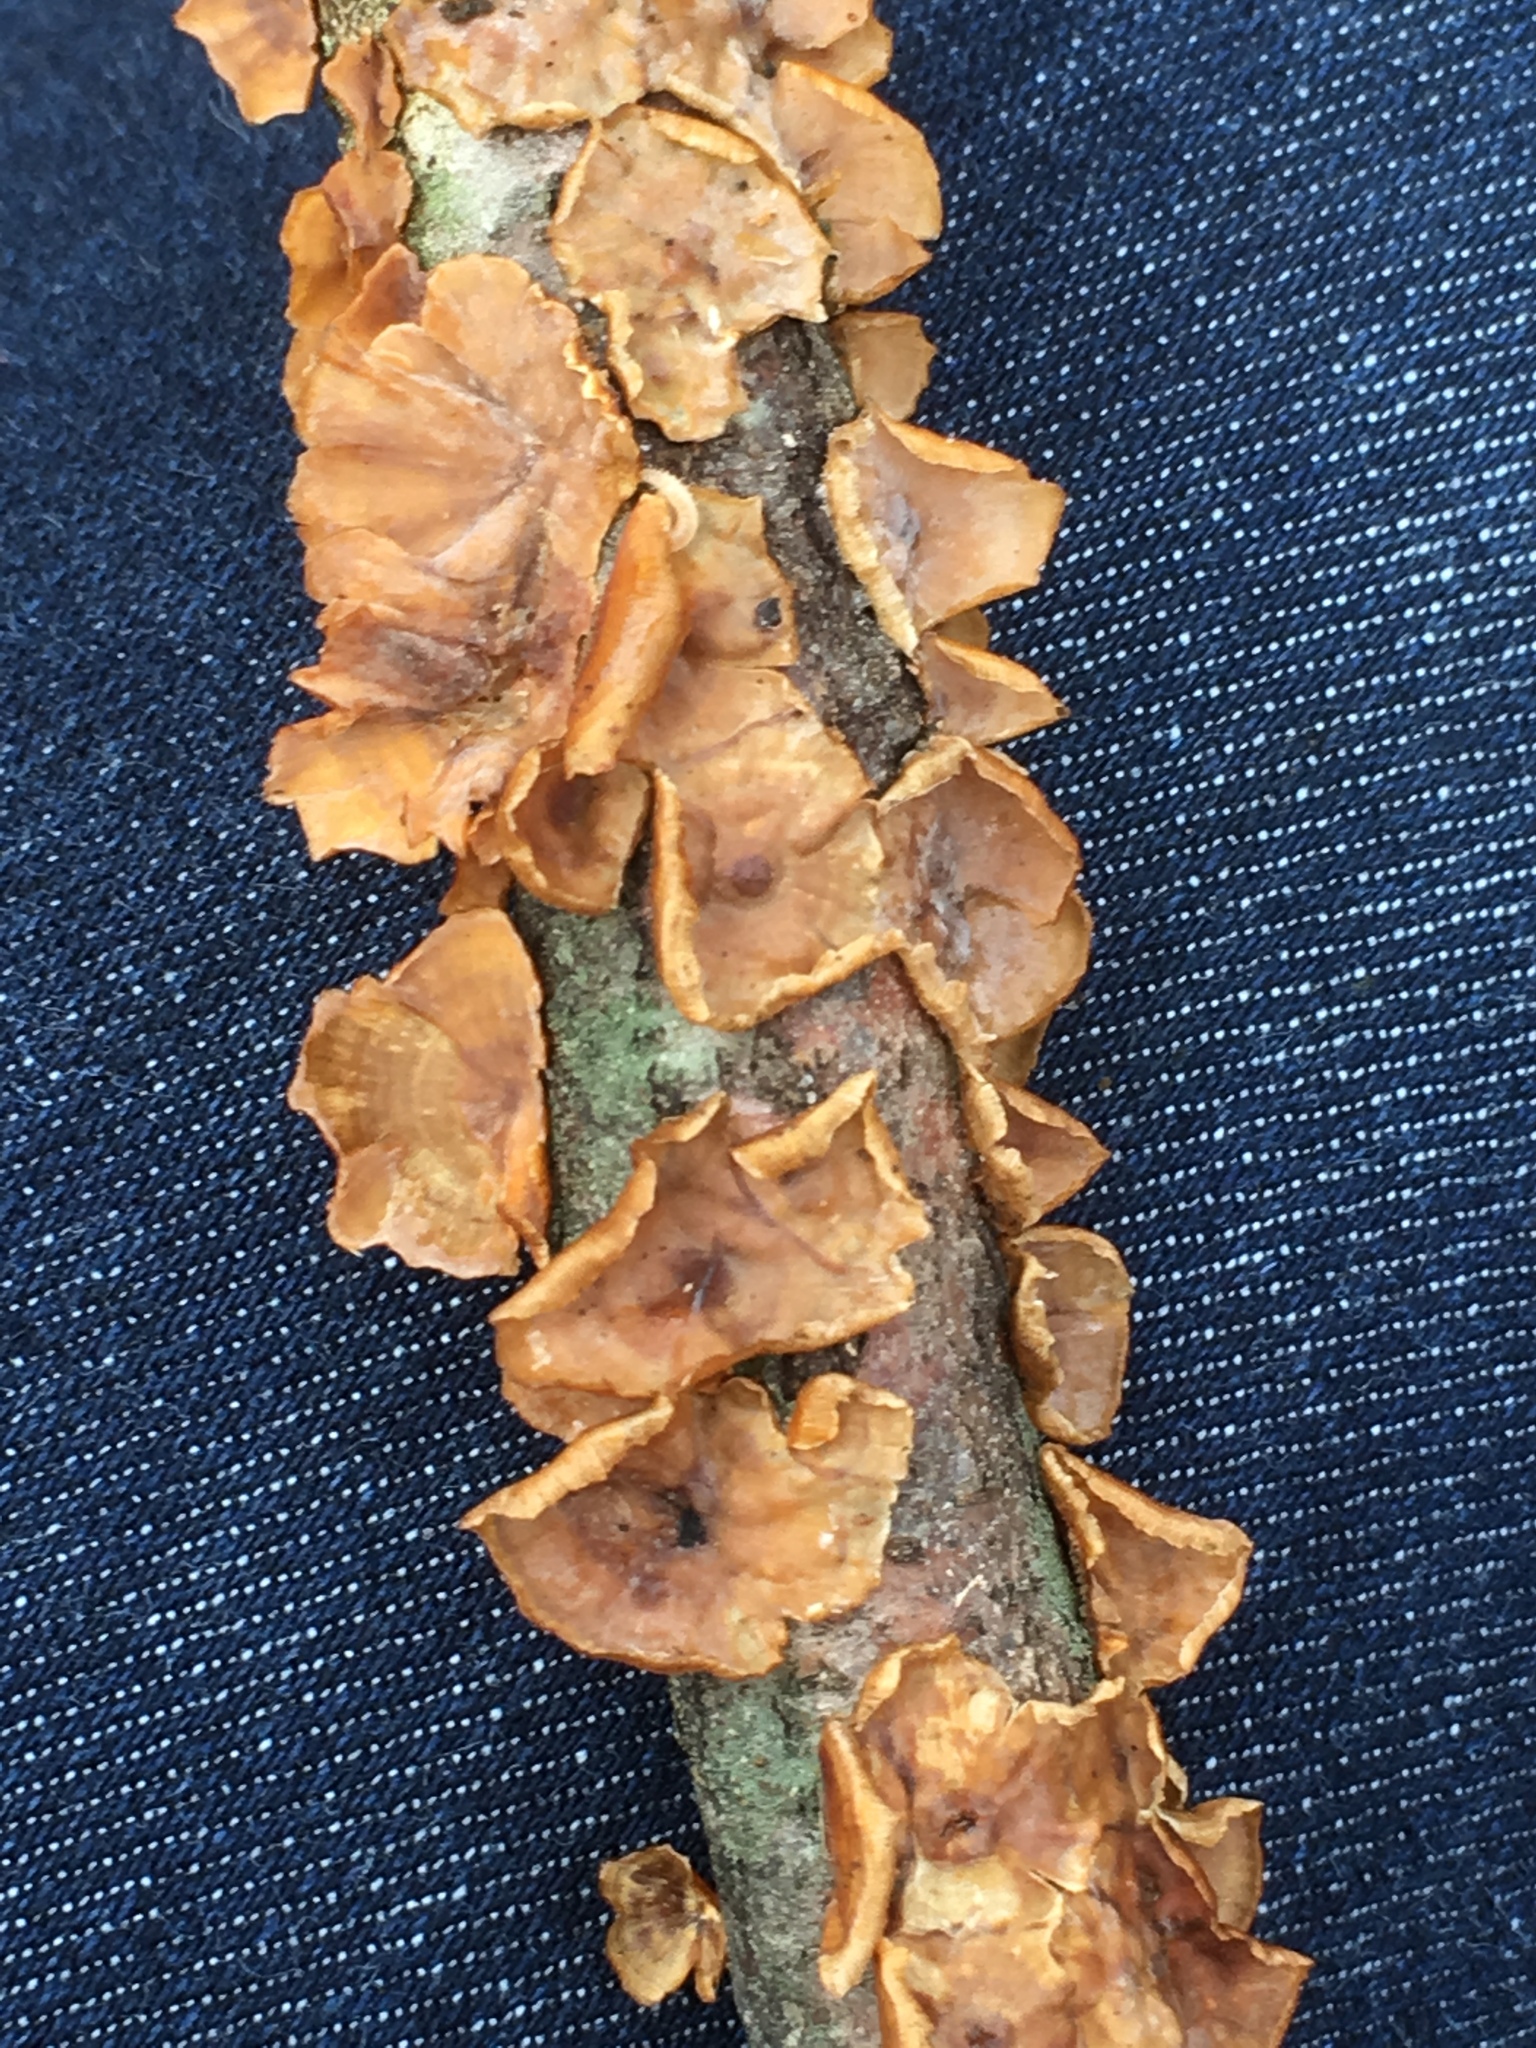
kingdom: Fungi
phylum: Basidiomycota
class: Agaricomycetes
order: Russulales
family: Stereaceae
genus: Stereum
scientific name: Stereum complicatum
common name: Crowded parchment
